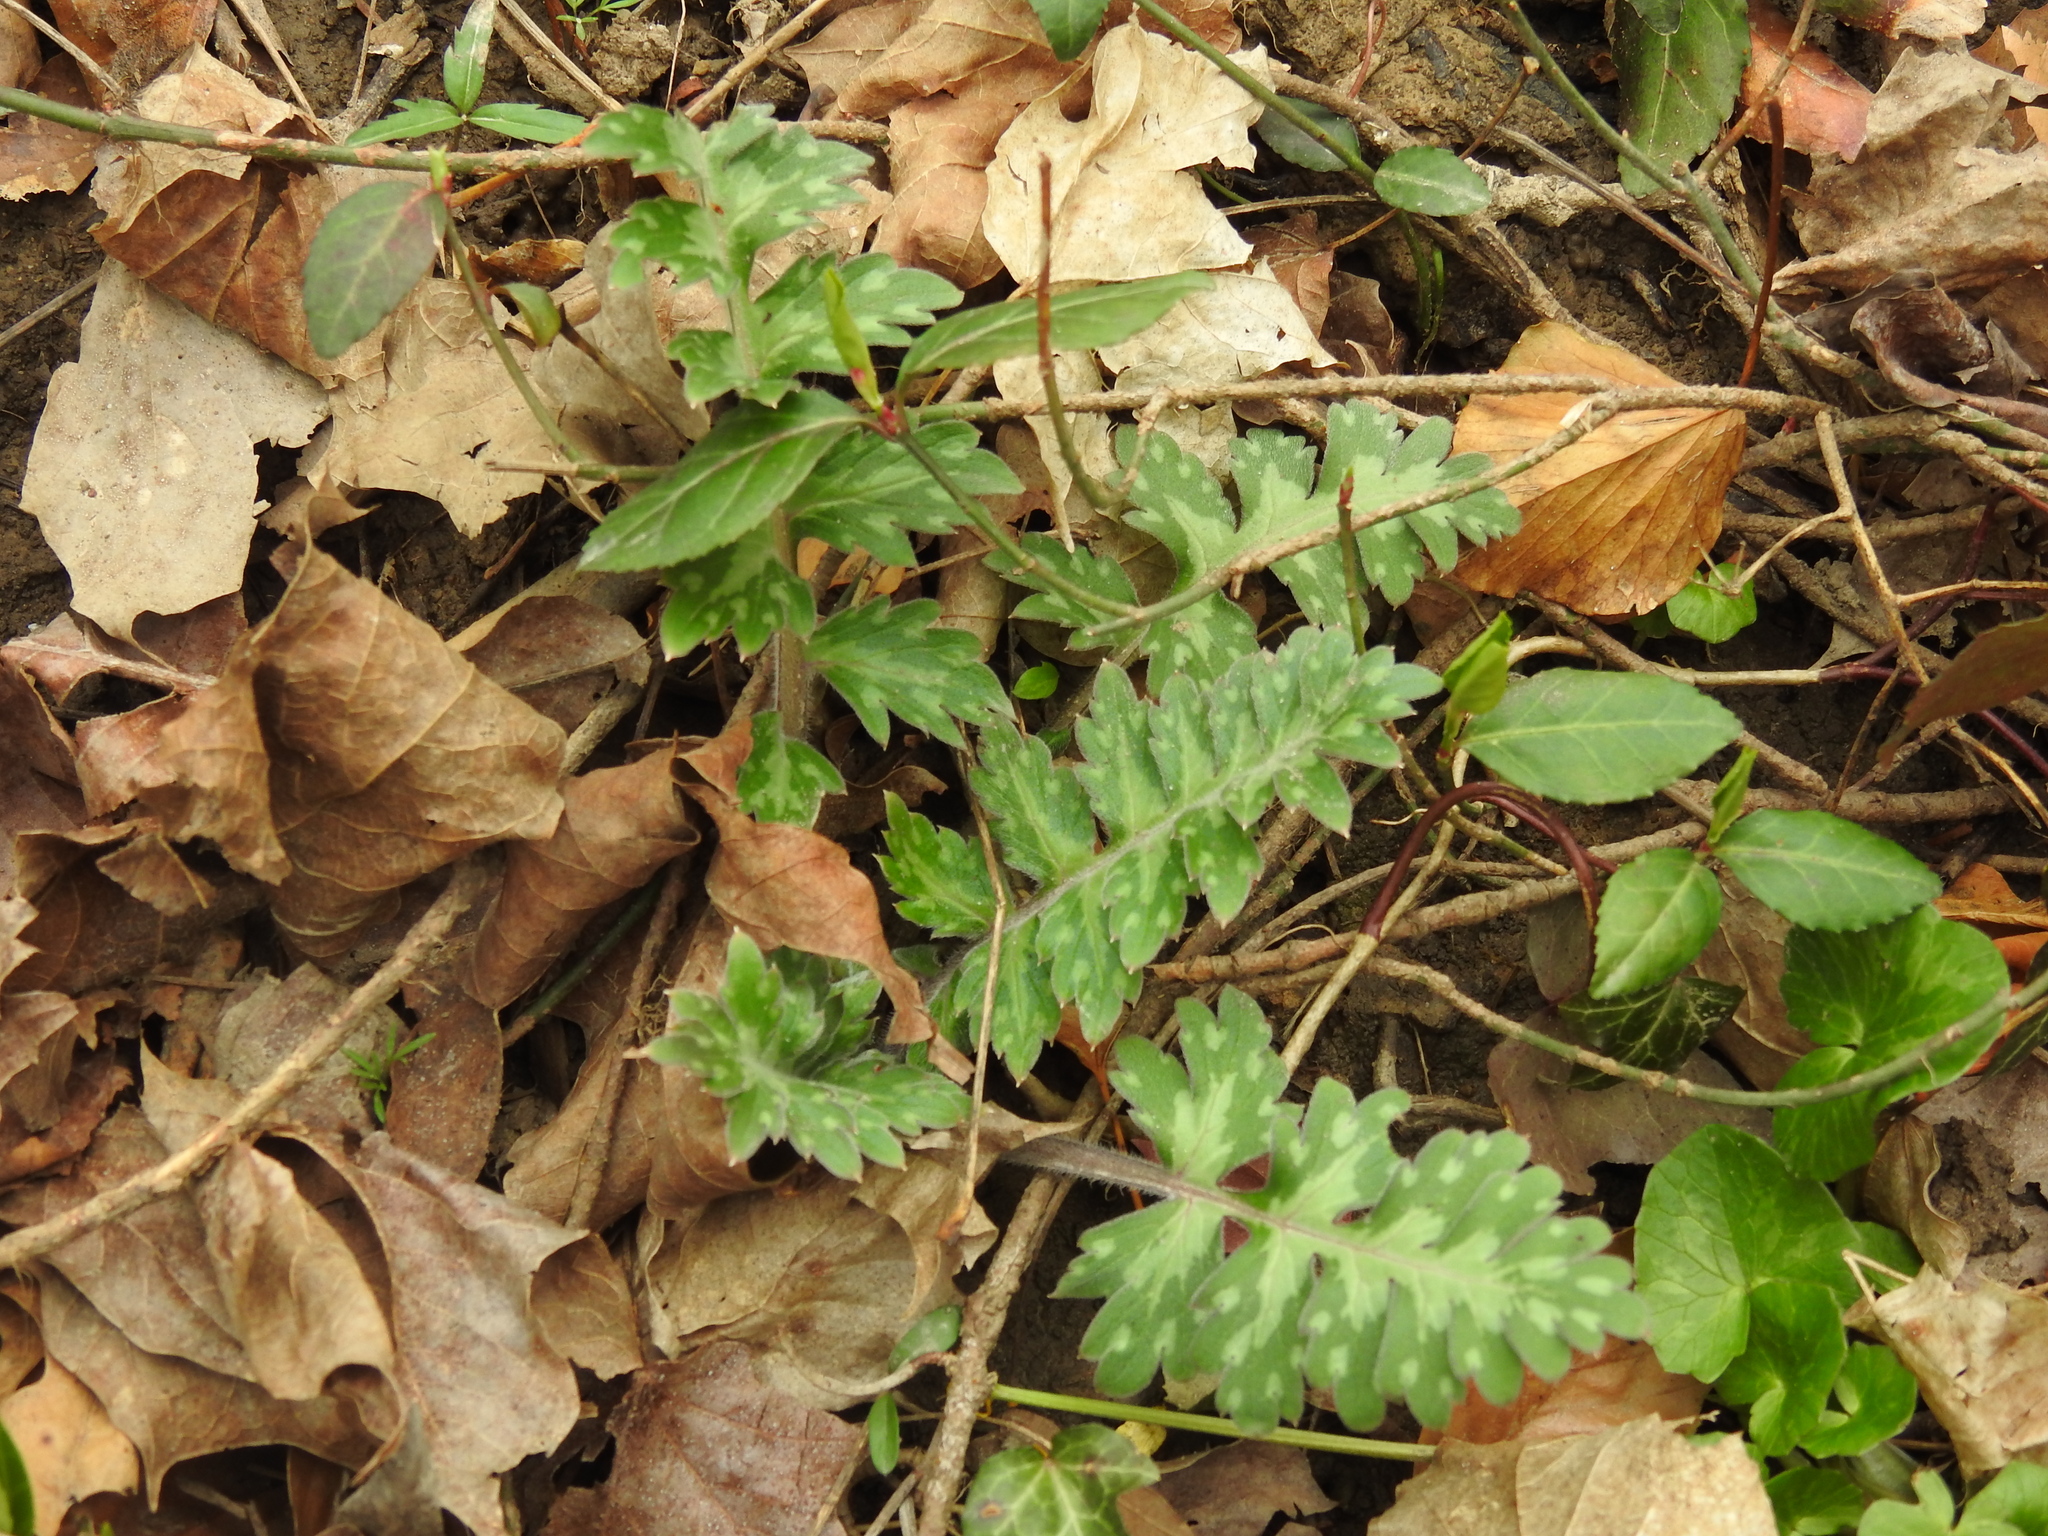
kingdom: Plantae
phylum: Tracheophyta
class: Magnoliopsida
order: Boraginales
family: Hydrophyllaceae
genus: Hydrophyllum
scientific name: Hydrophyllum macrophyllum
